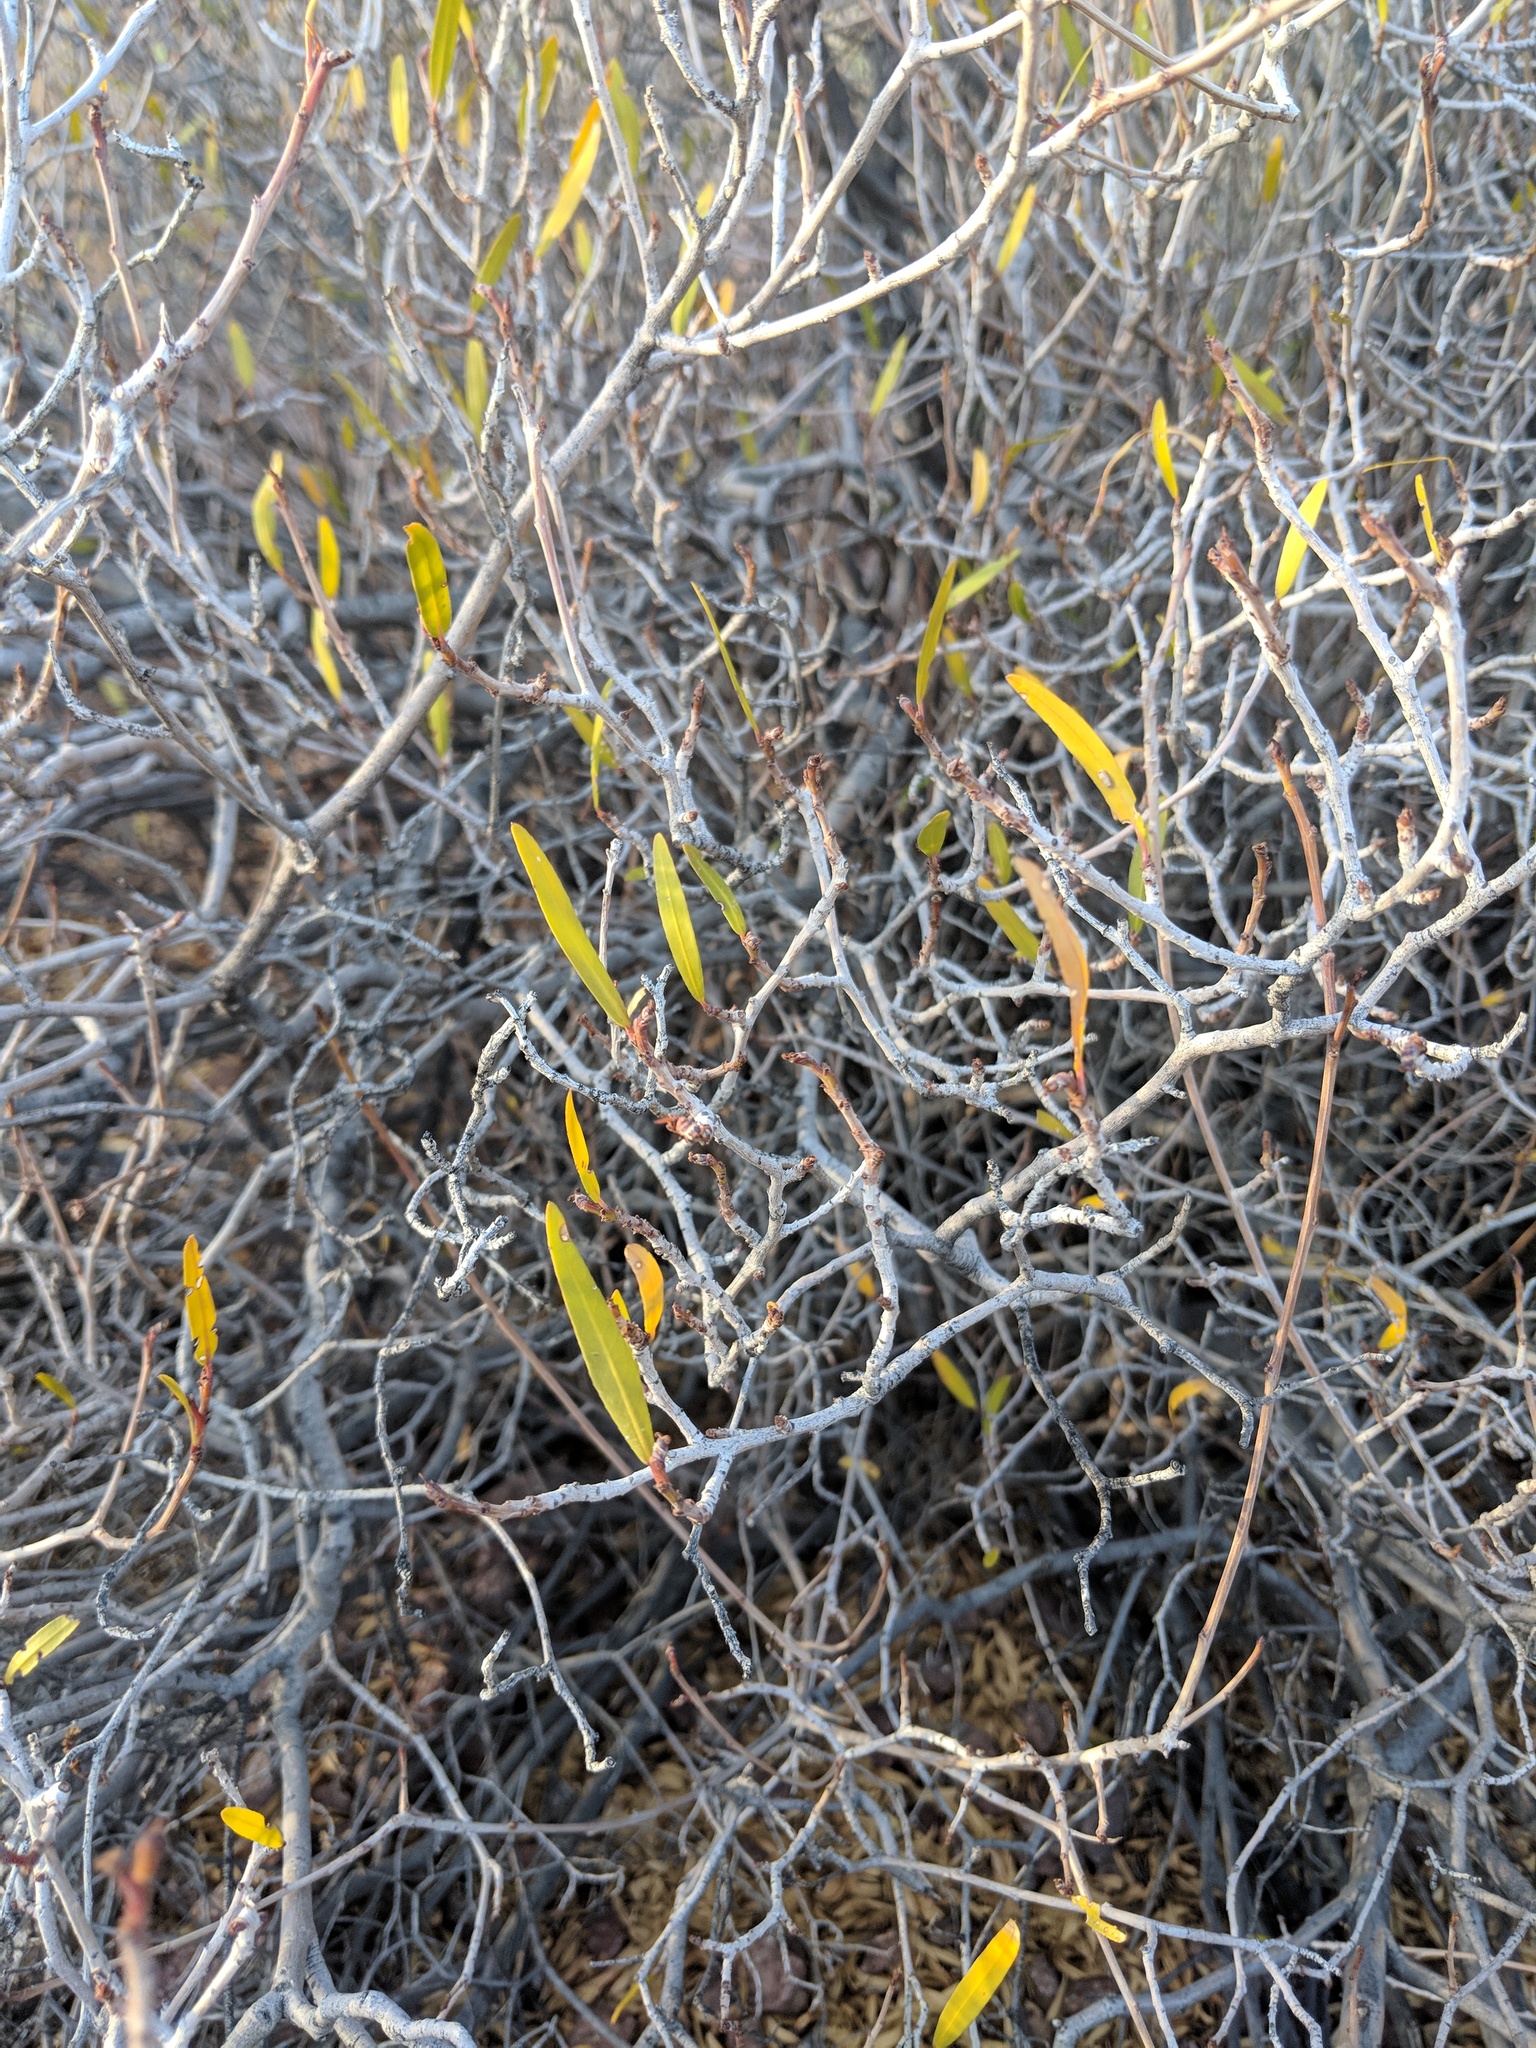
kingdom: Plantae
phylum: Tracheophyta
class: Magnoliopsida
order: Malpighiales
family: Euphorbiaceae
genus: Pleradenophora
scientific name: Pleradenophora bilocularis
